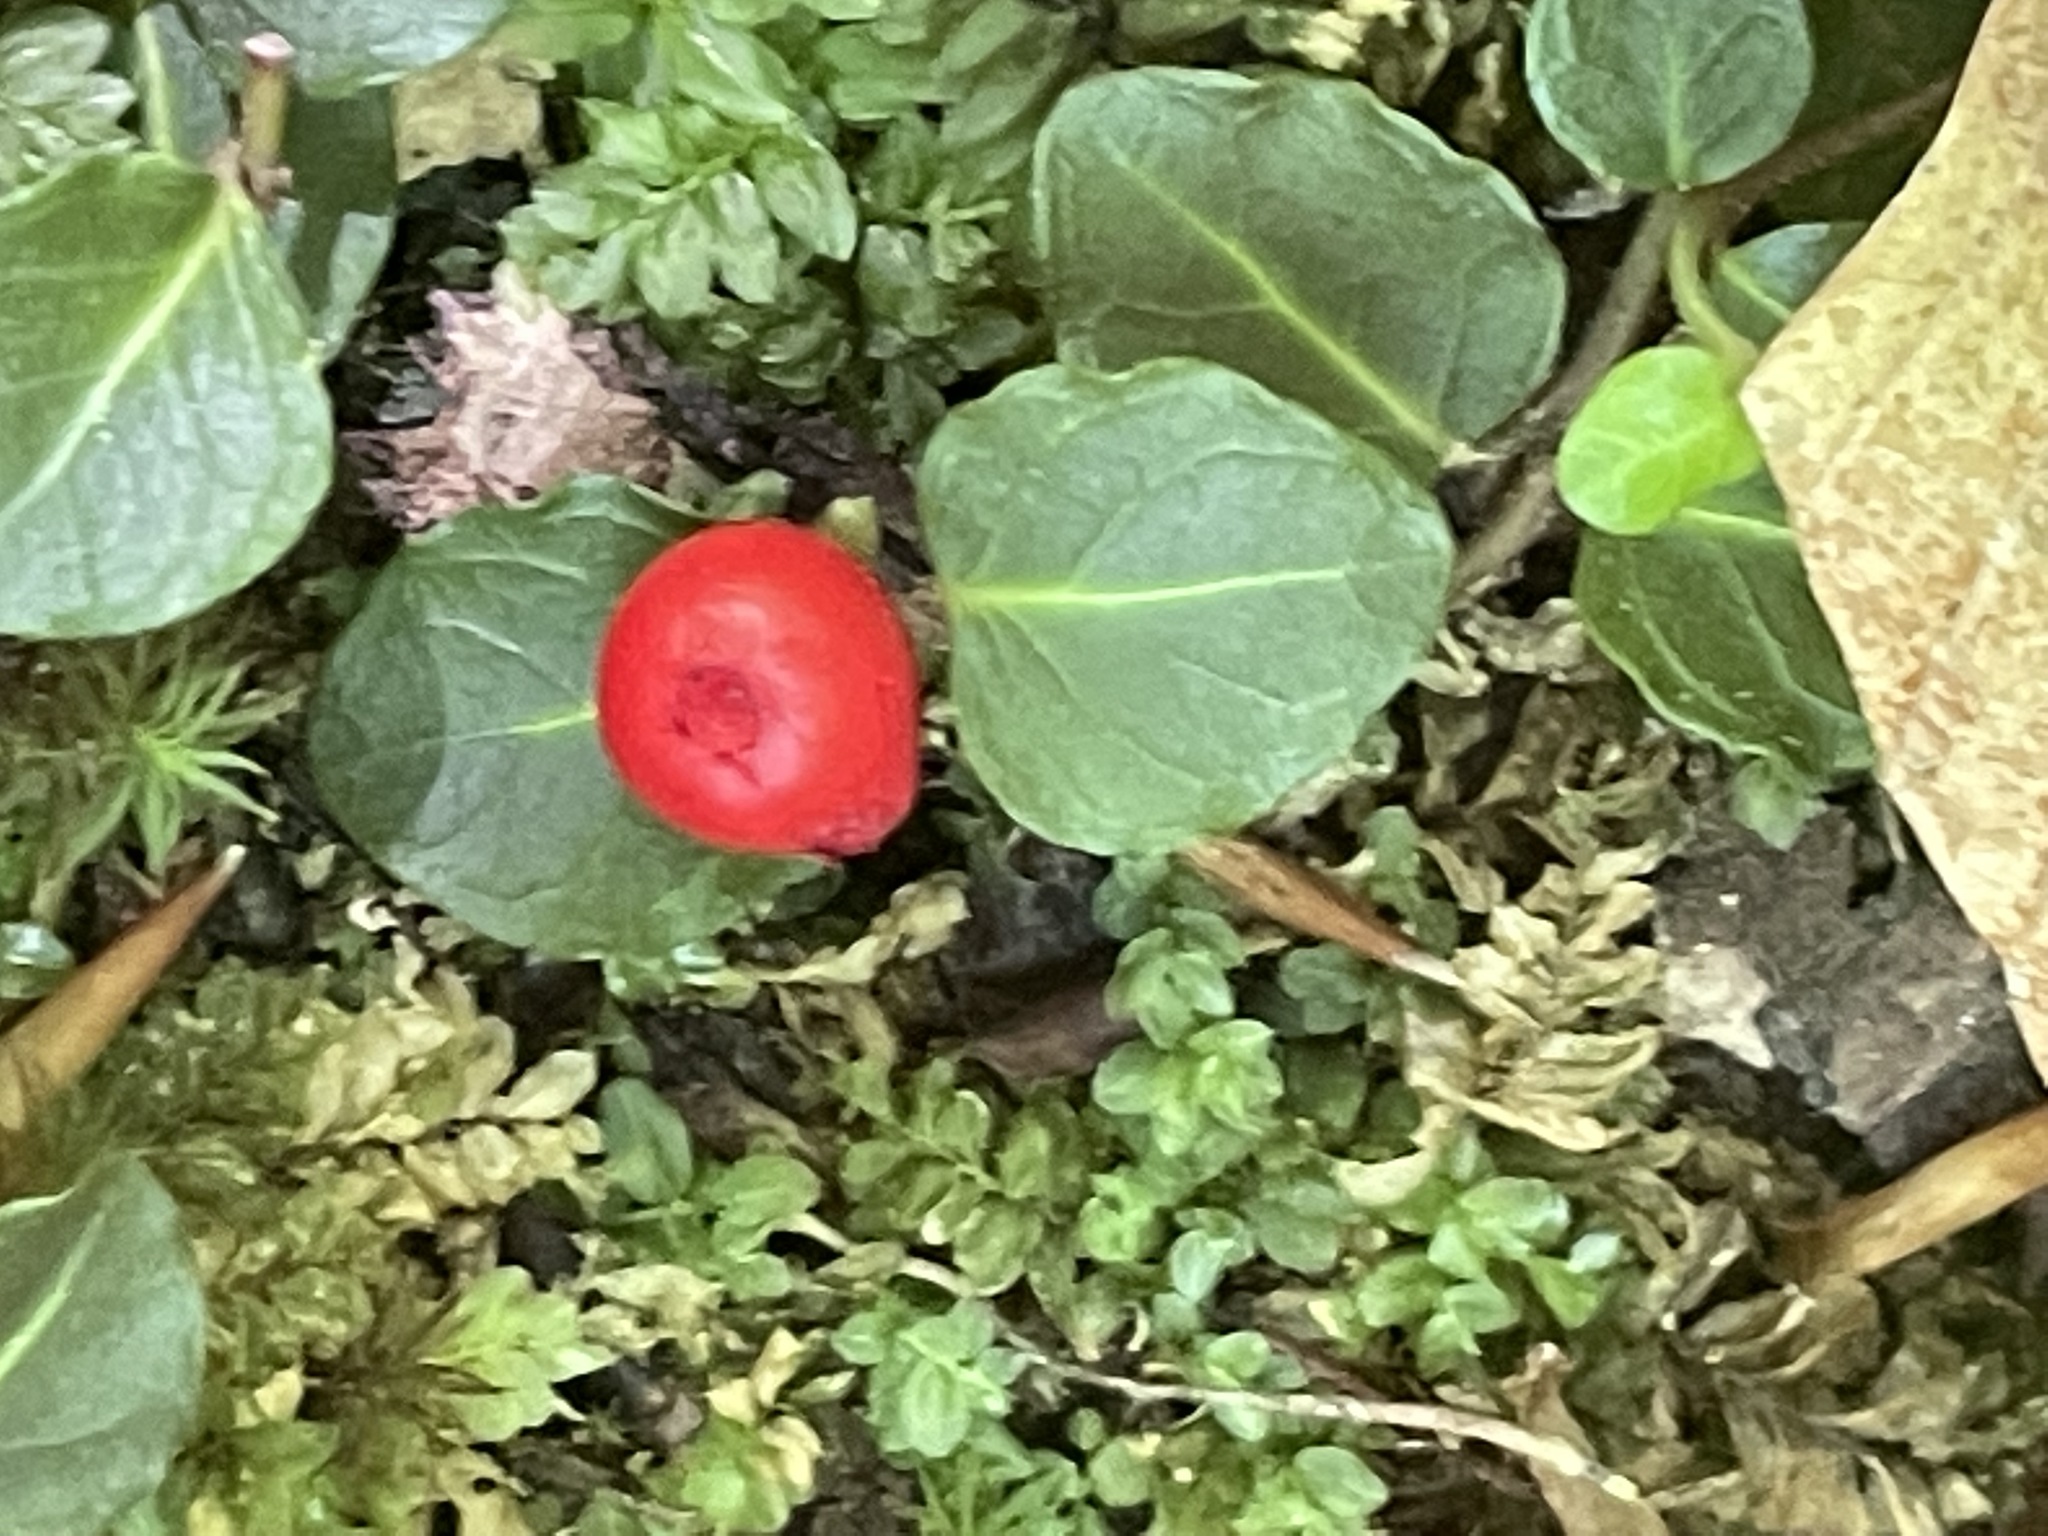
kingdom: Plantae
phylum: Tracheophyta
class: Magnoliopsida
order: Gentianales
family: Rubiaceae
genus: Mitchella
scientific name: Mitchella repens
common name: Partridge-berry
